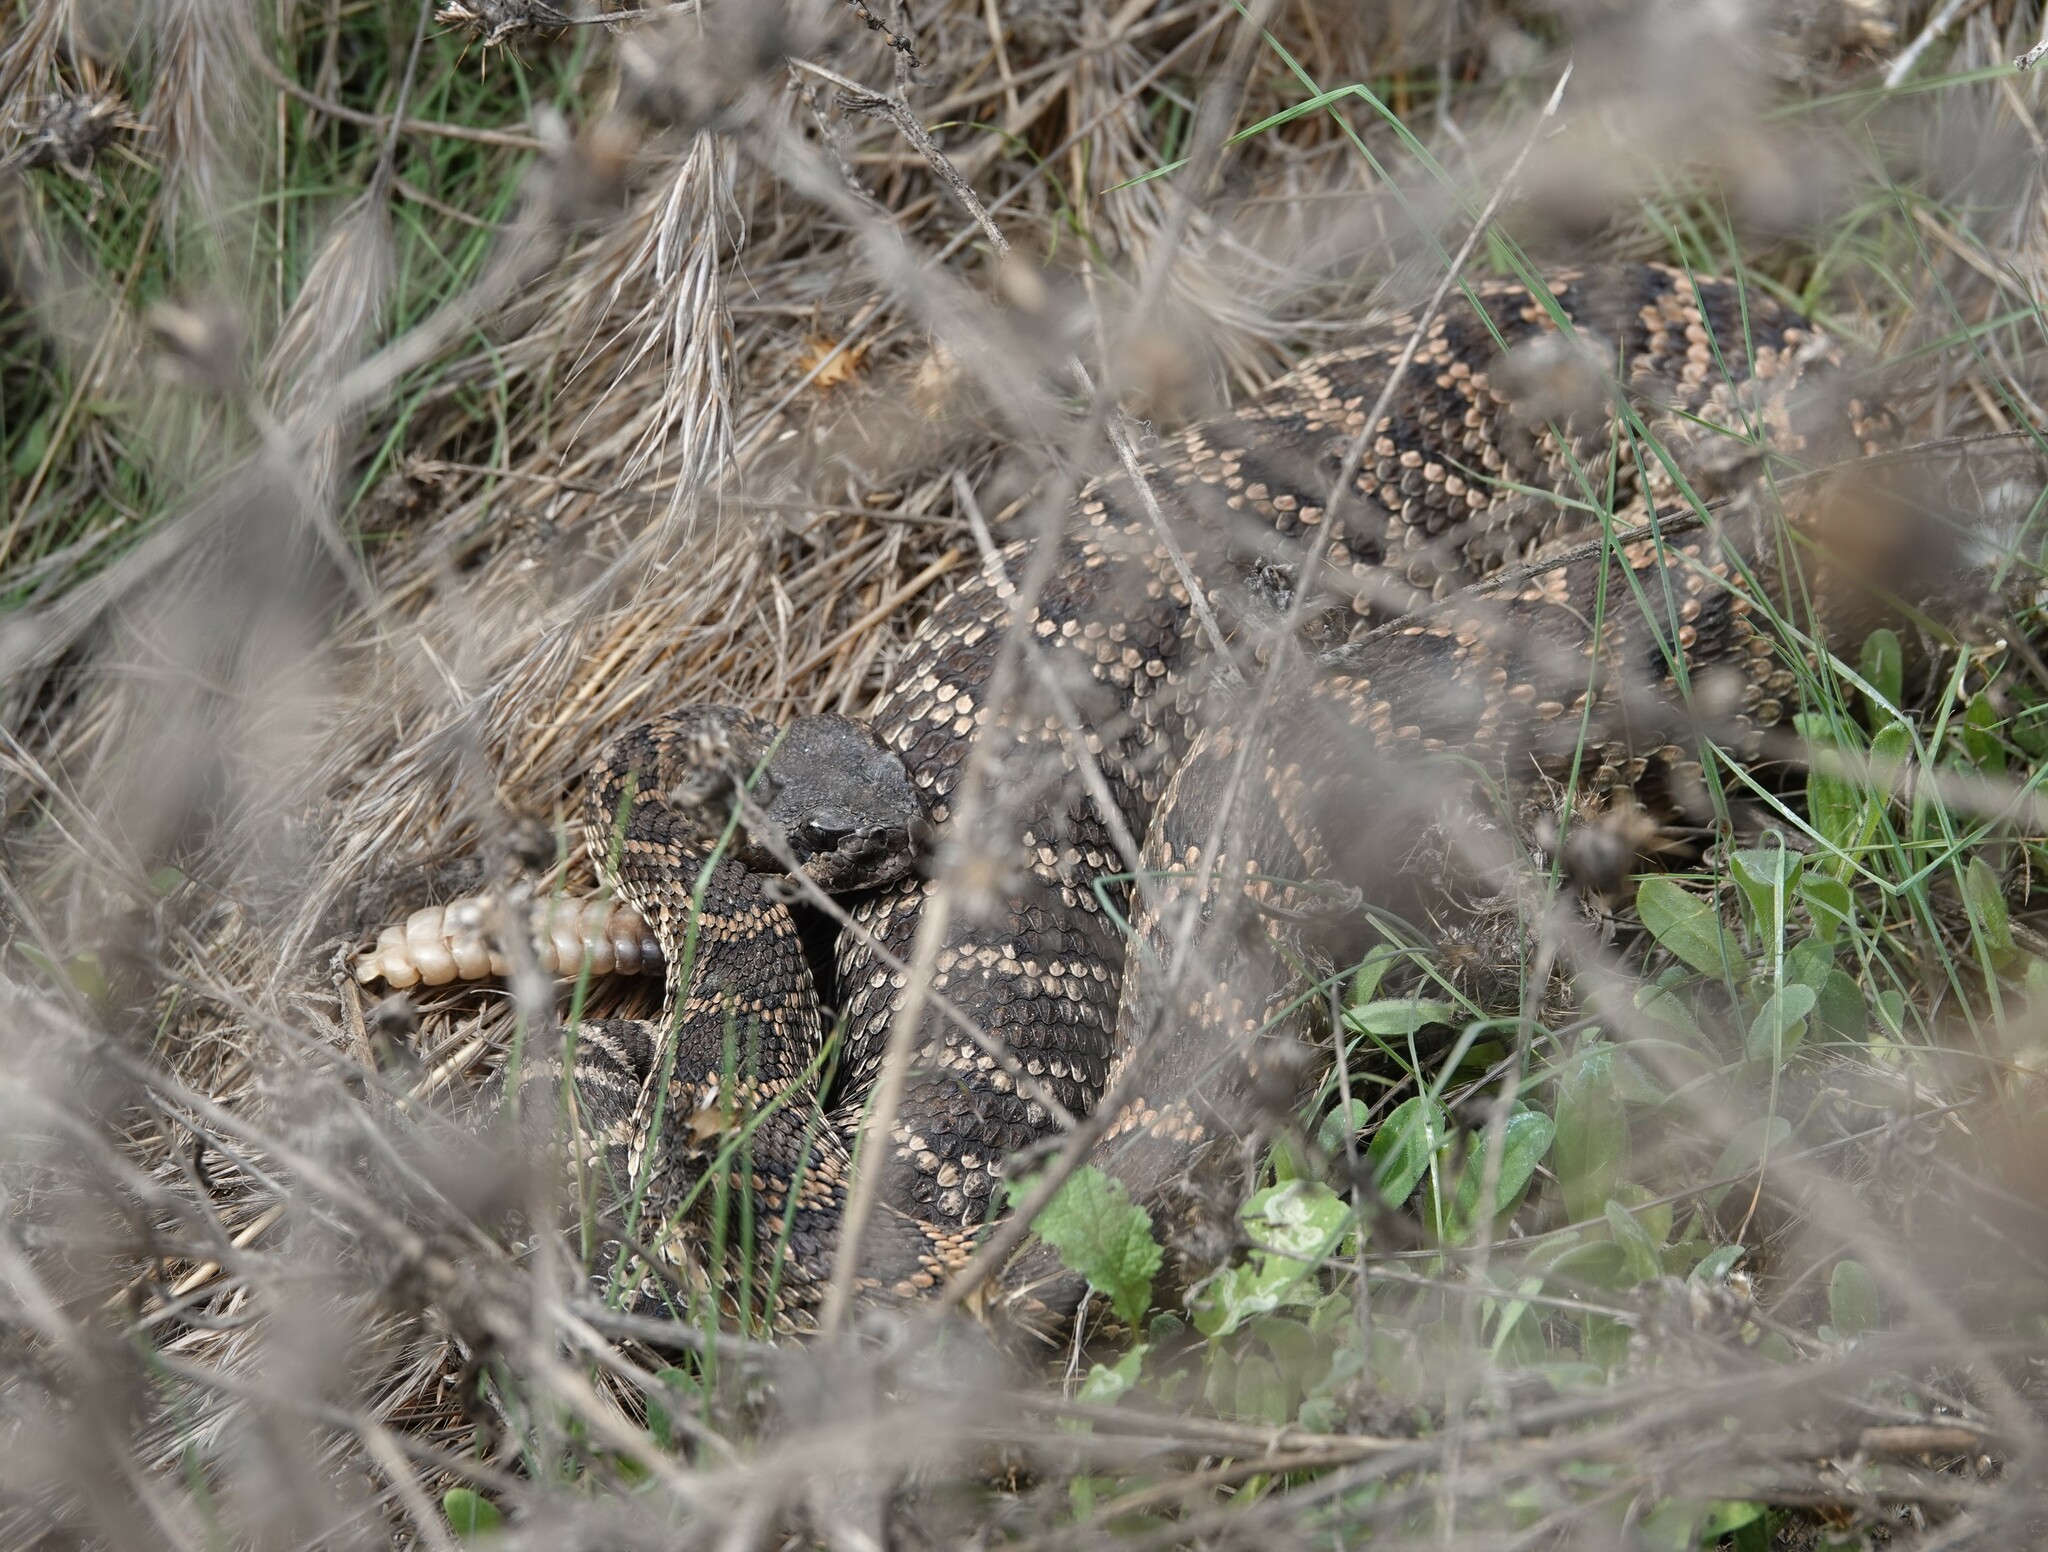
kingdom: Animalia
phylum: Chordata
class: Squamata
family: Viperidae
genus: Crotalus
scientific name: Crotalus oreganus
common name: Abyssus
